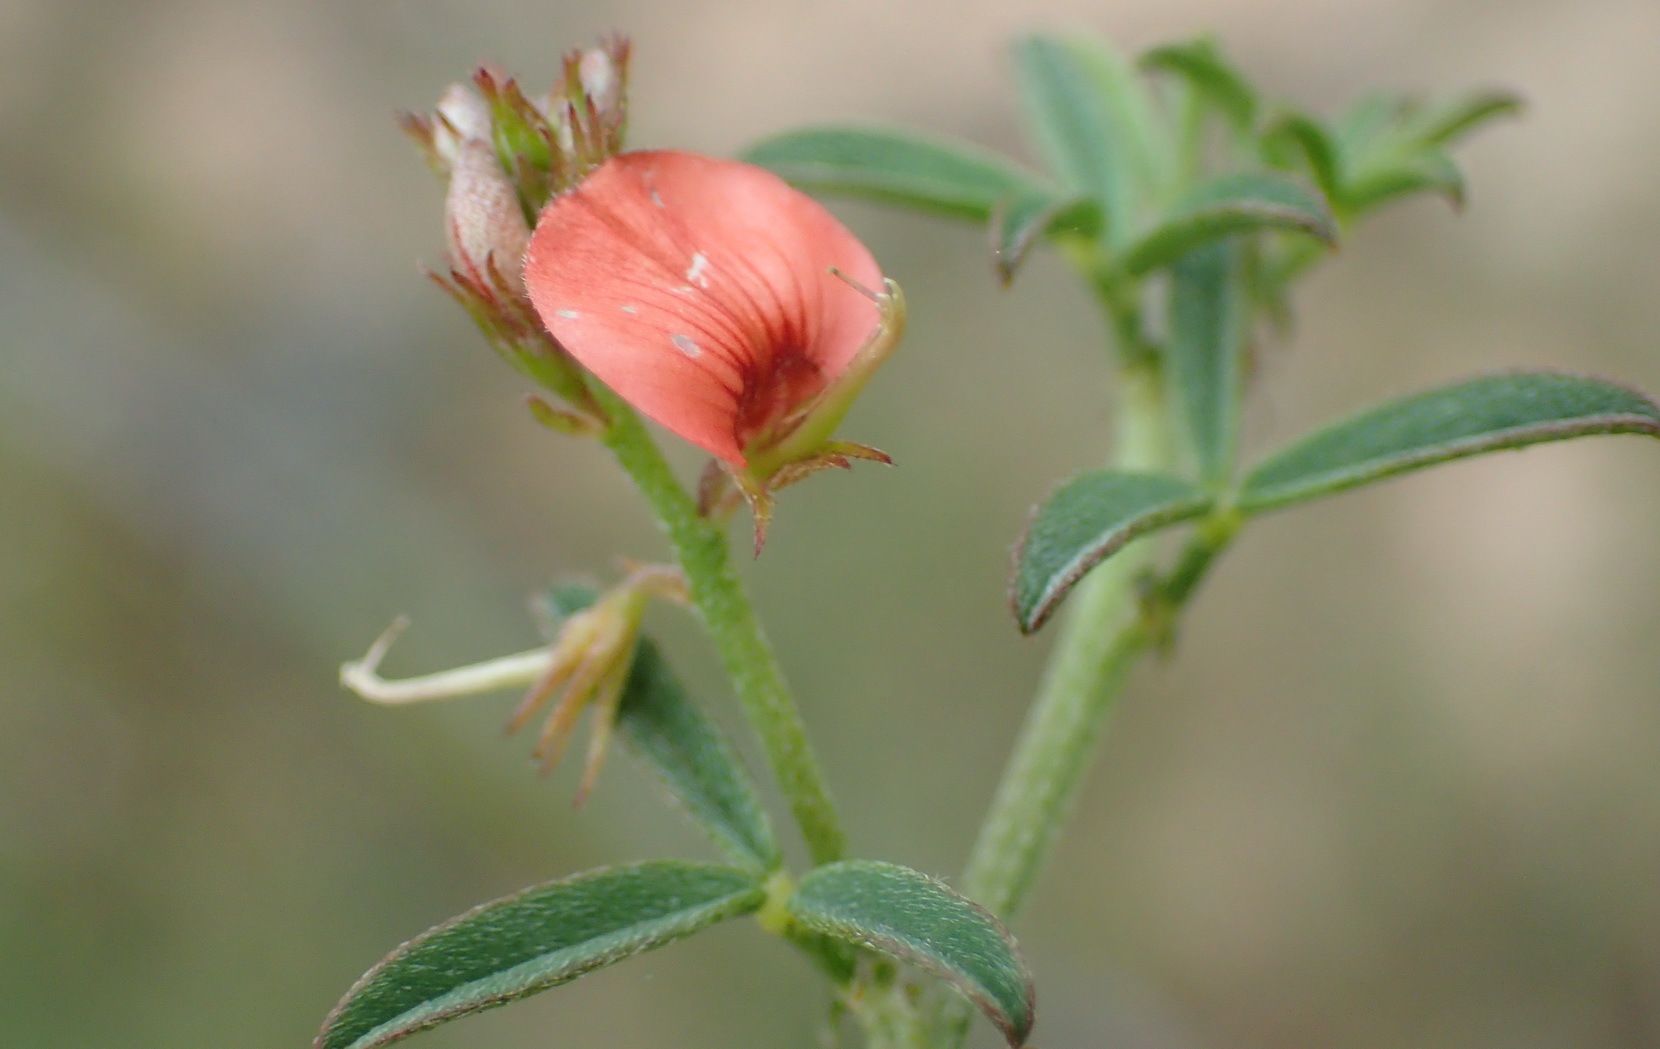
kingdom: Plantae
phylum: Tracheophyta
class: Magnoliopsida
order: Fabales
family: Fabaceae
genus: Indigofera
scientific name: Indigofera priorii
